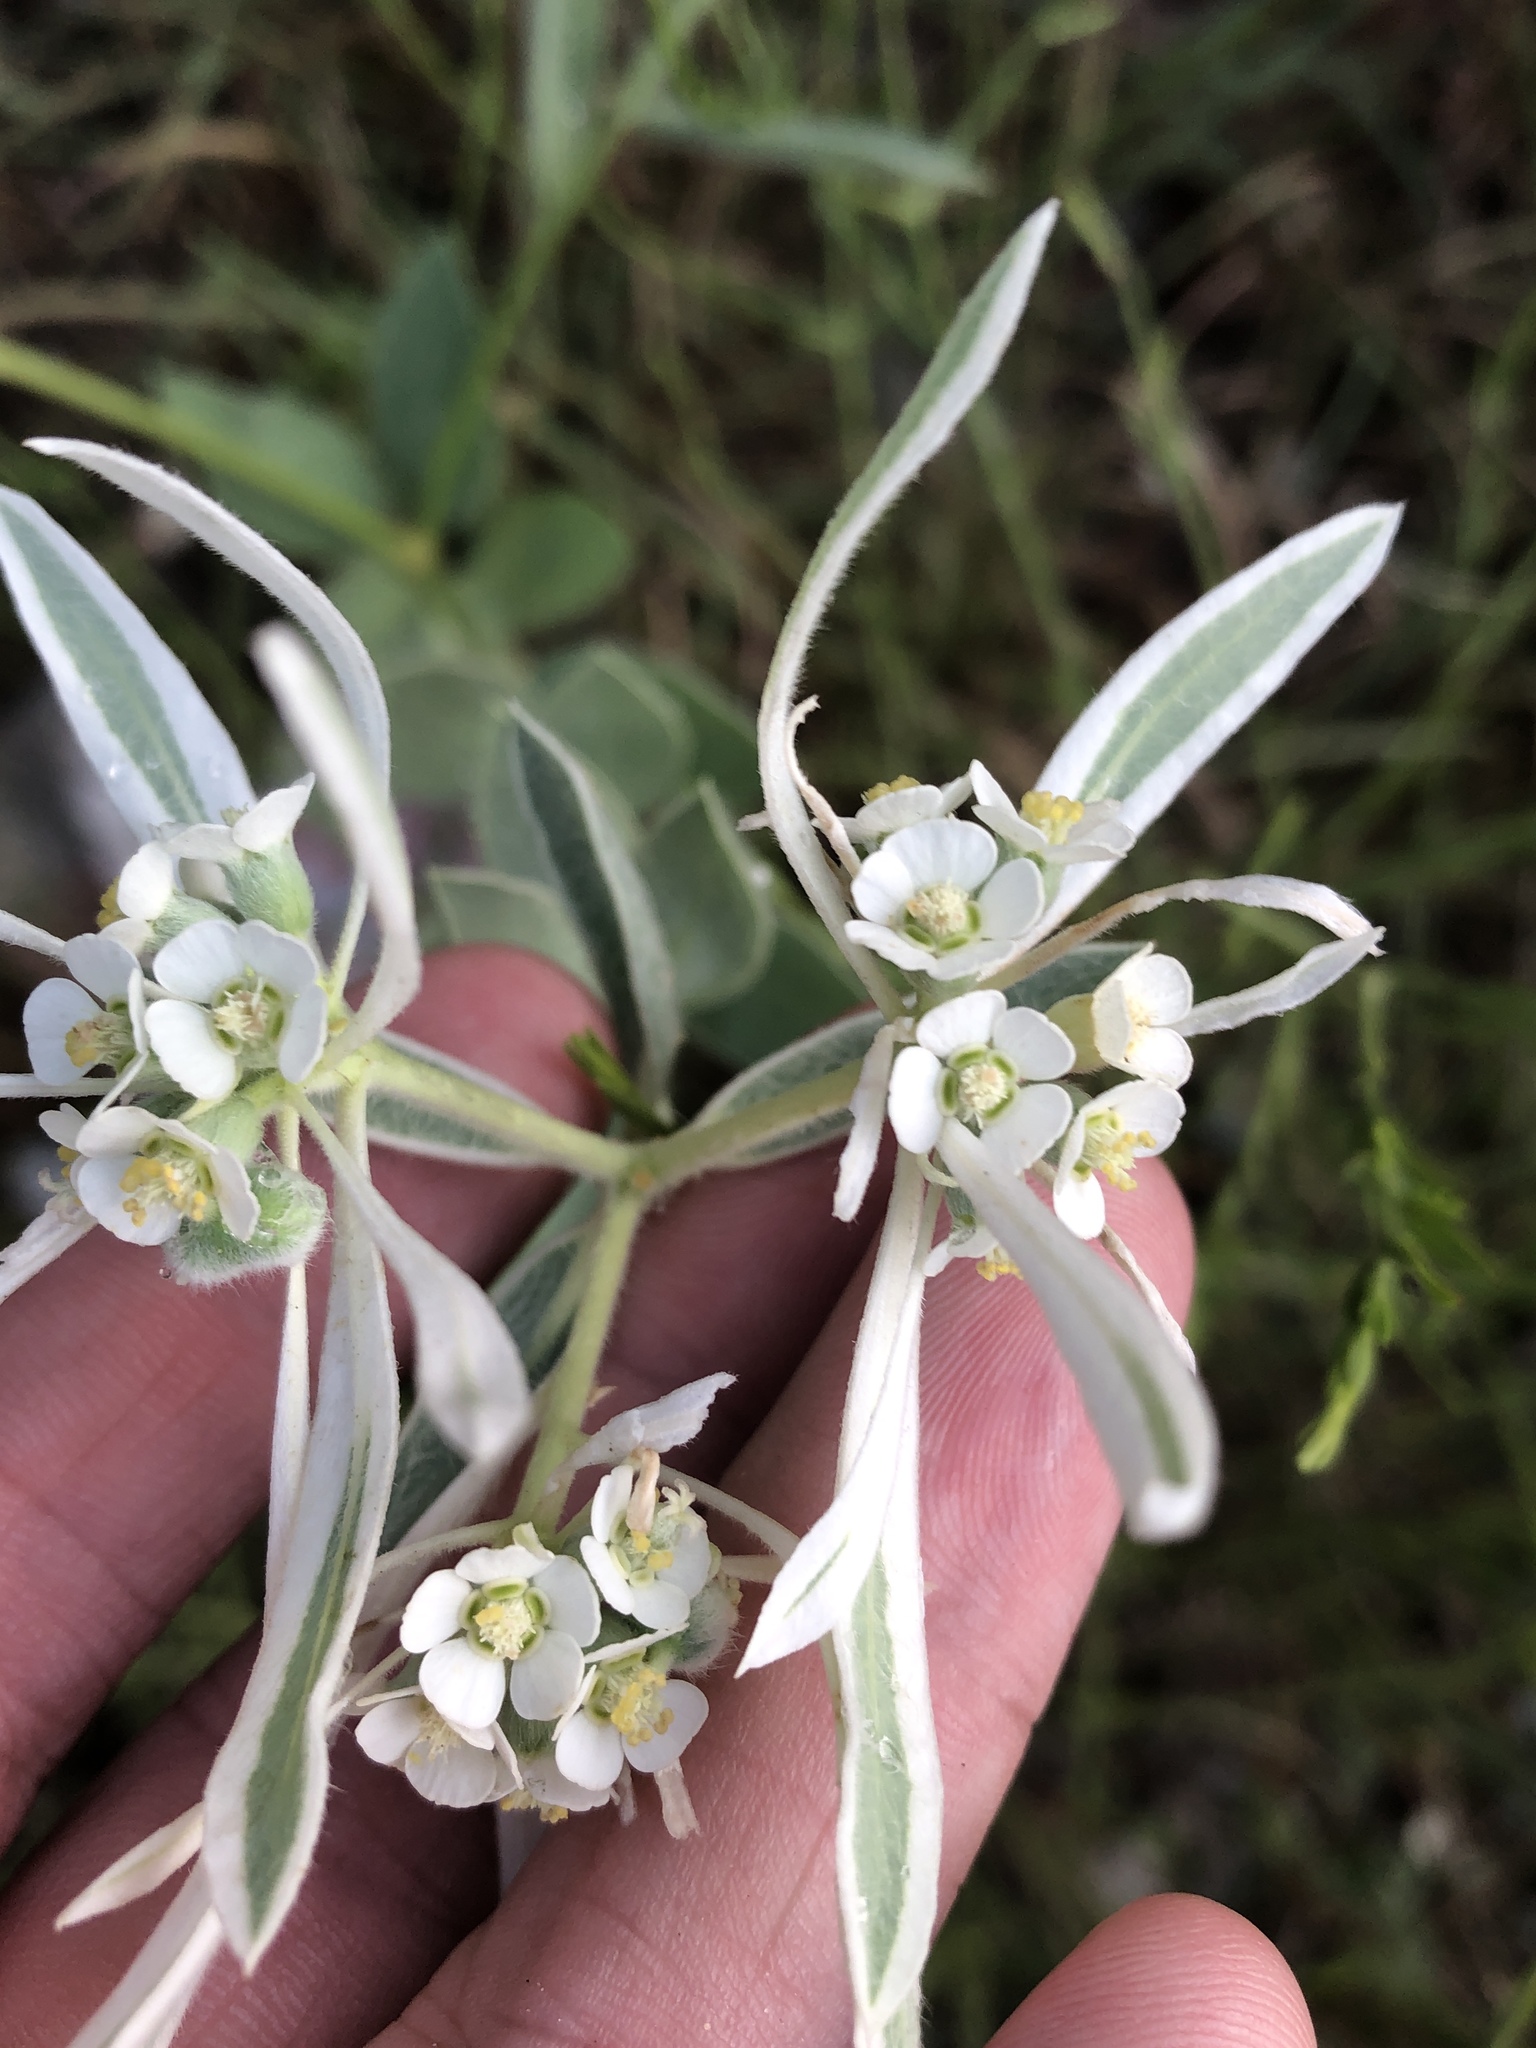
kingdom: Plantae
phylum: Tracheophyta
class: Magnoliopsida
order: Malpighiales
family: Euphorbiaceae
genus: Euphorbia
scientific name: Euphorbia bicolor
